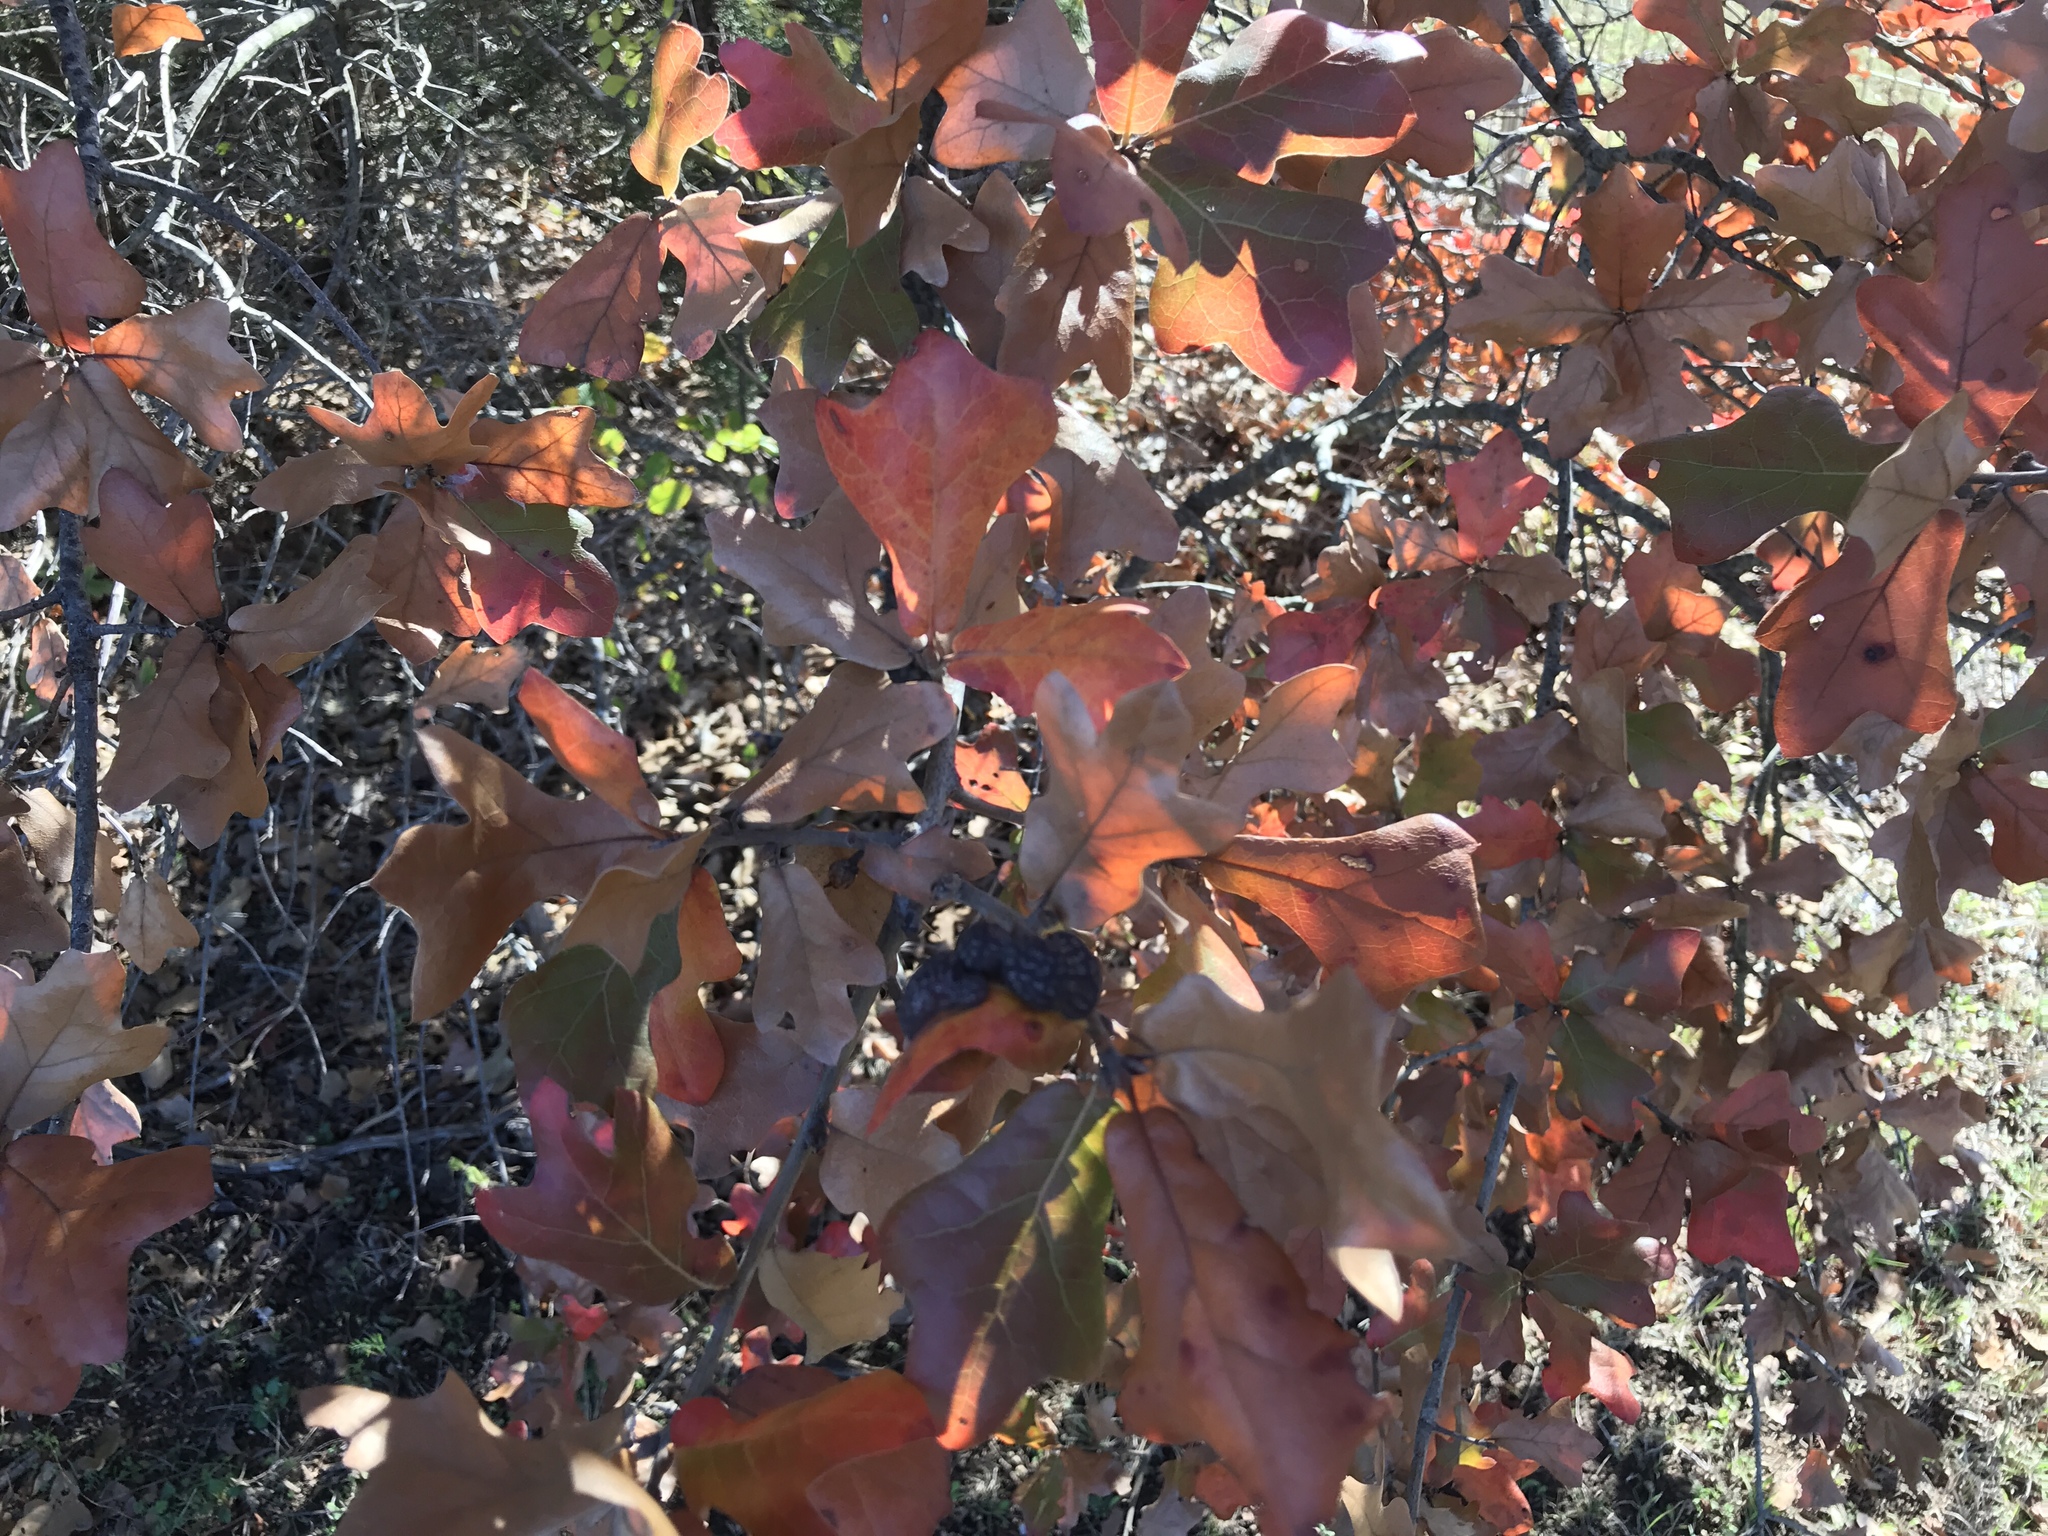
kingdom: Animalia
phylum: Arthropoda
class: Insecta
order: Diptera
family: Cecidomyiidae
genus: Polystepha
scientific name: Polystepha pilulae
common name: Oak leaf gall midge
